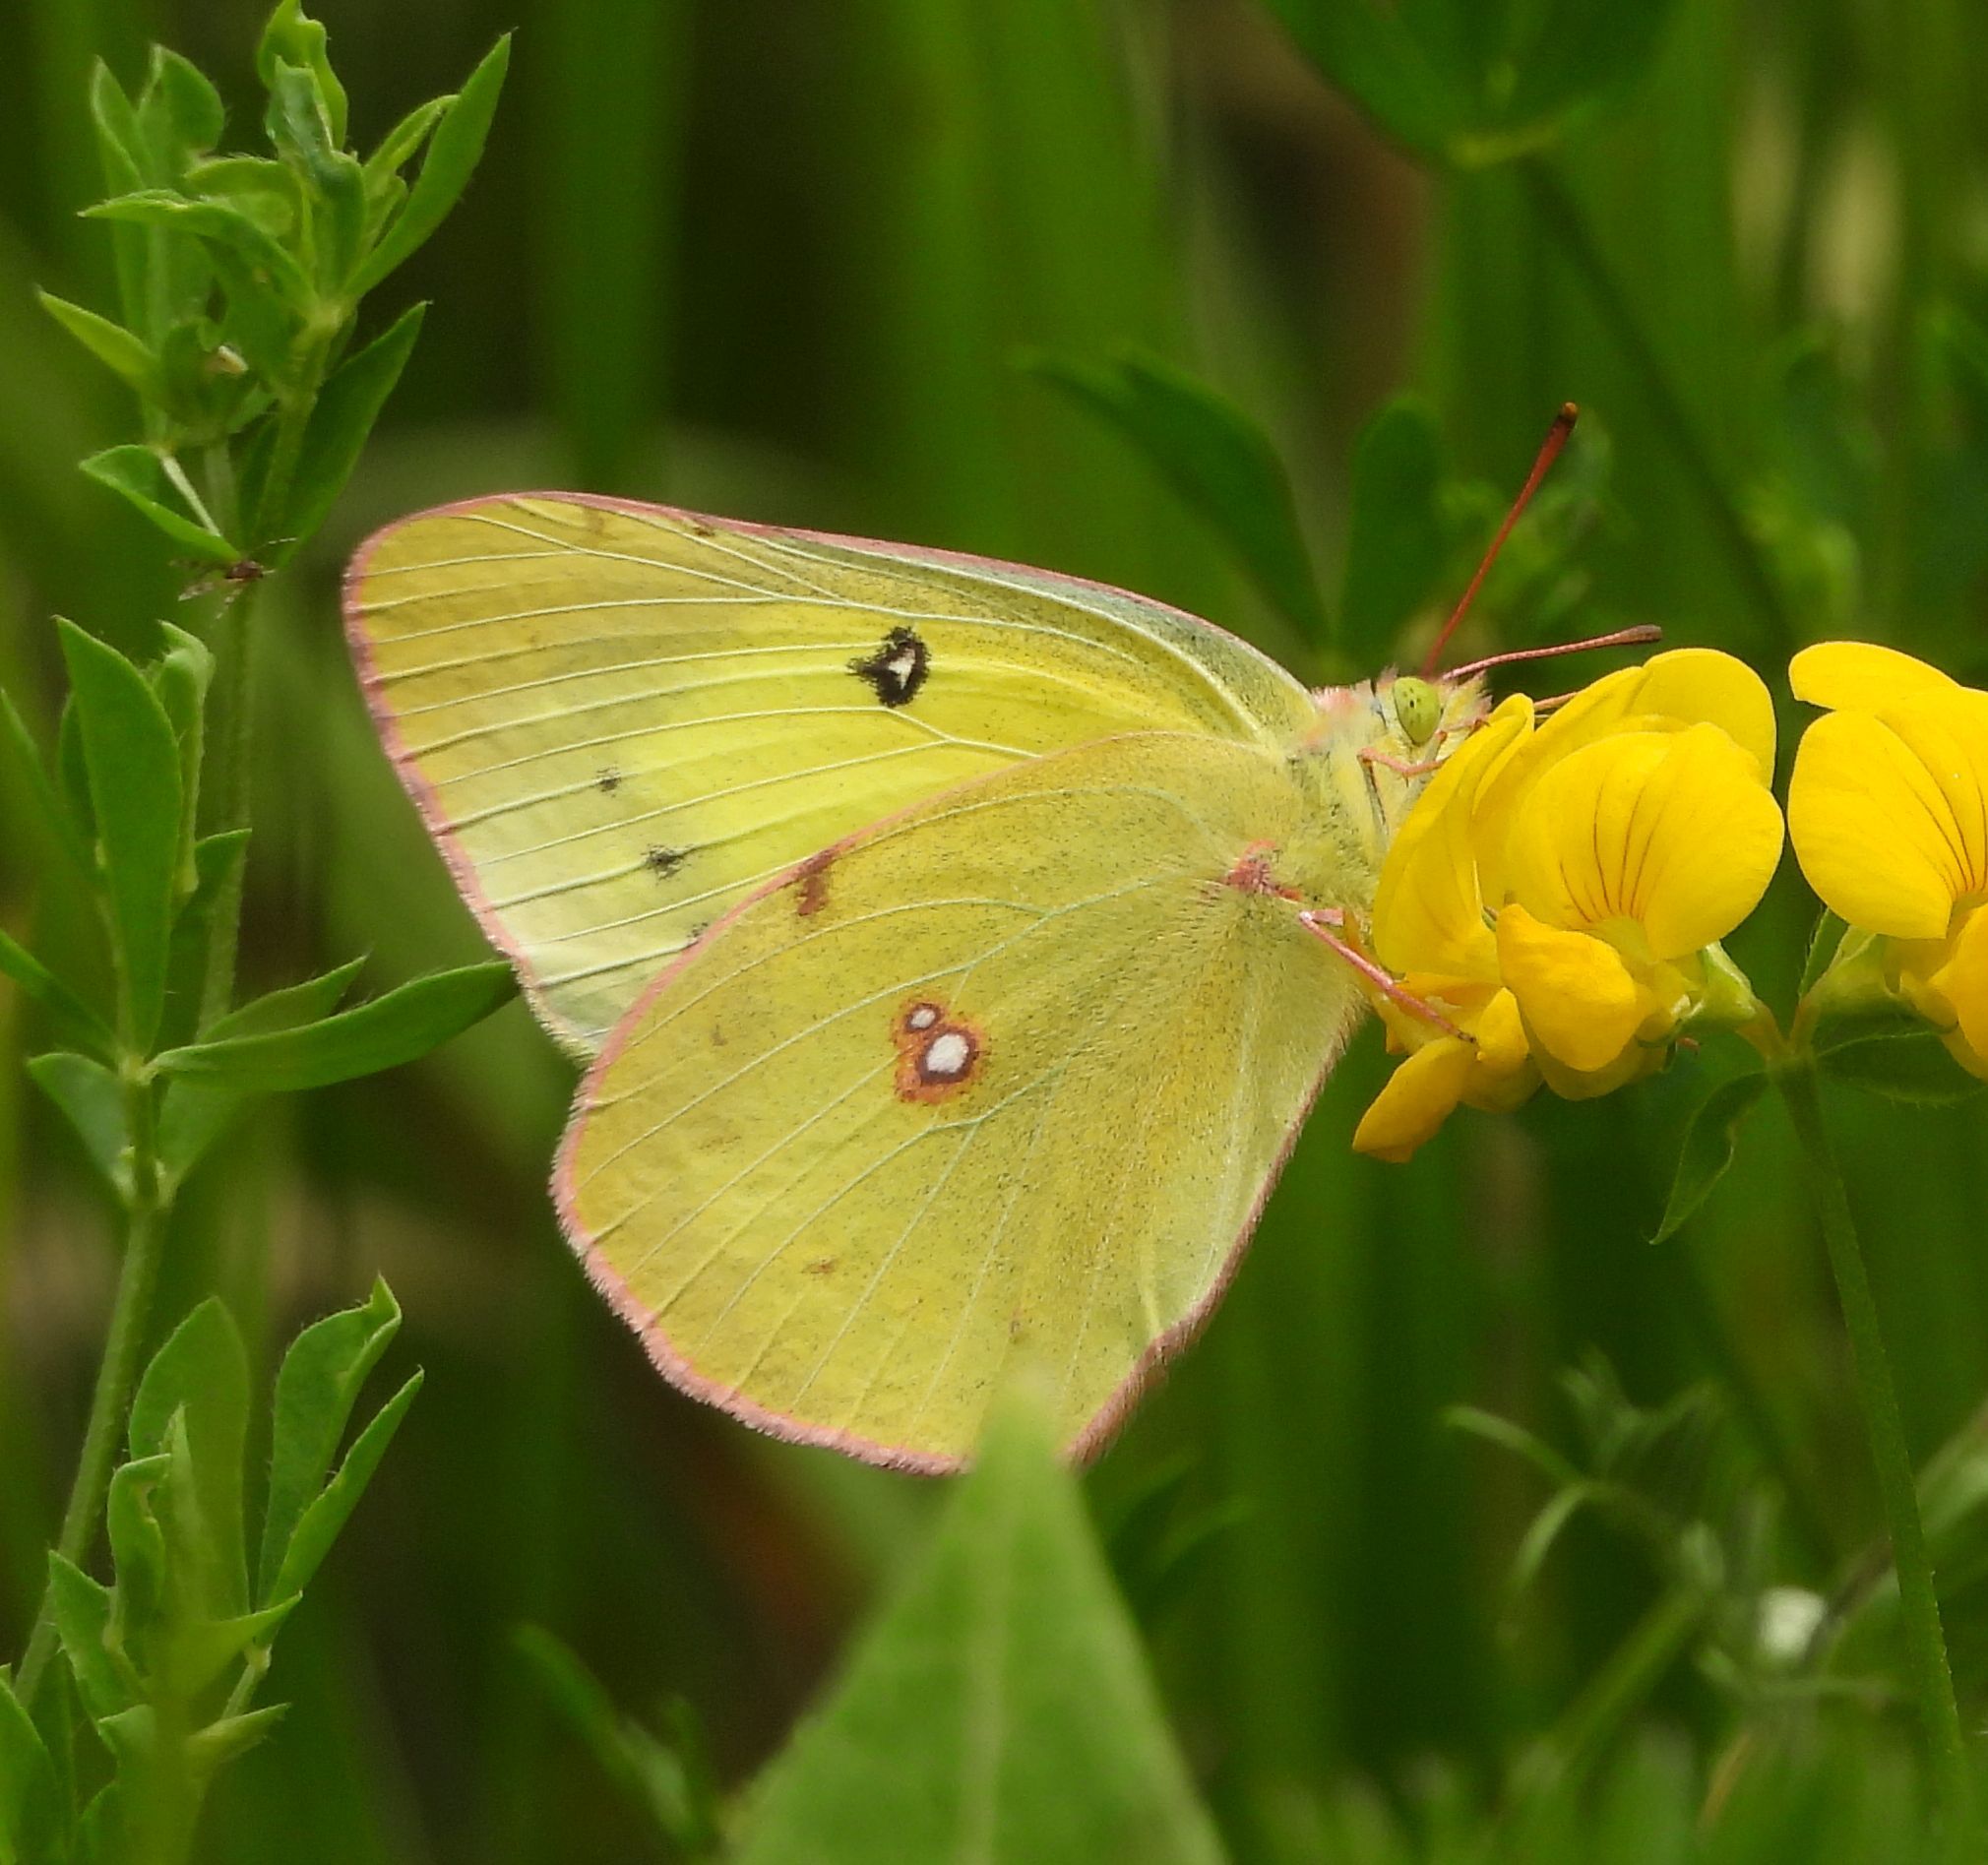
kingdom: Animalia
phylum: Arthropoda
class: Insecta
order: Lepidoptera
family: Pieridae
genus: Colias
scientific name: Colias philodice
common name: Clouded sulphur
